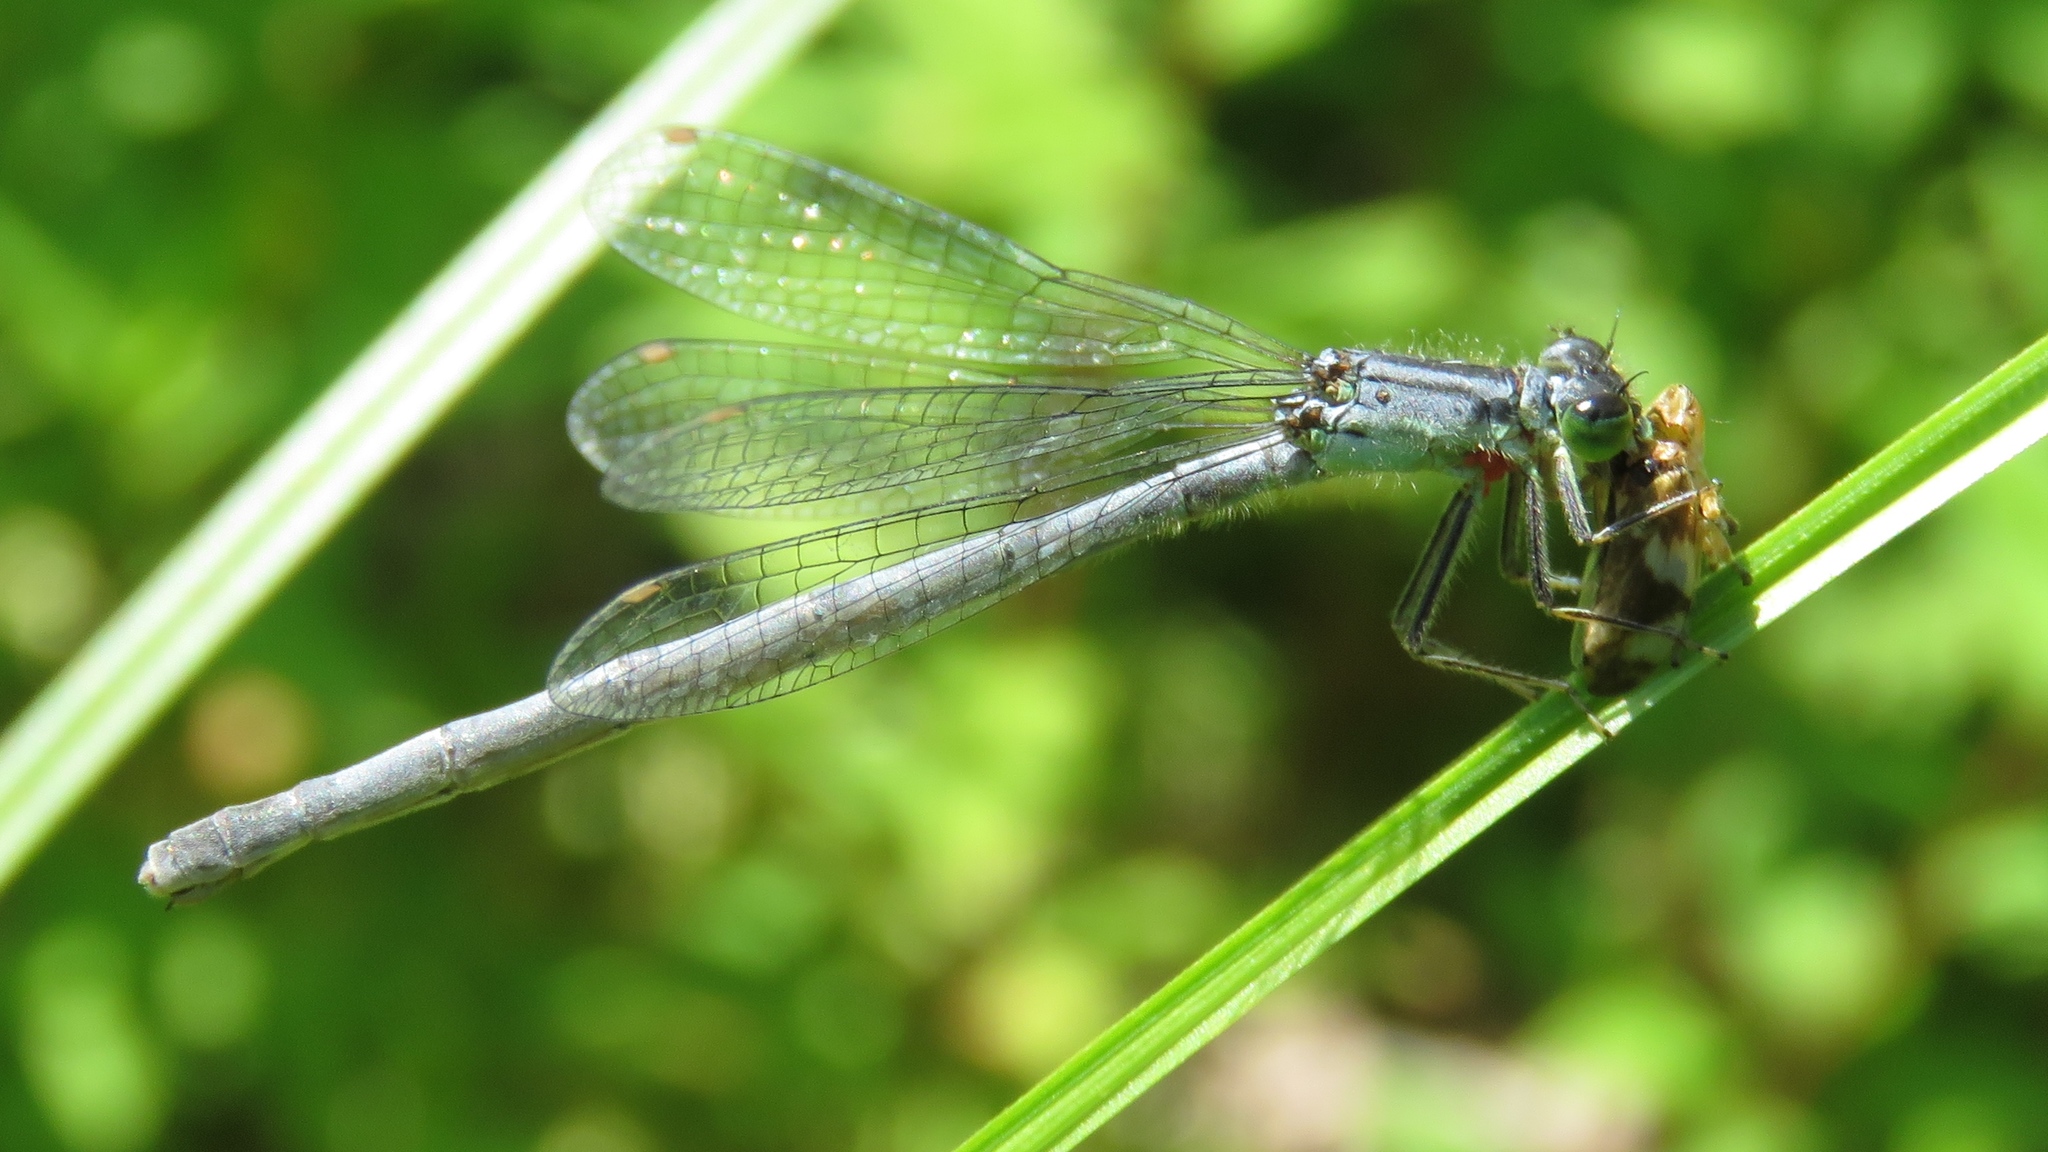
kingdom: Animalia
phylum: Arthropoda
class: Insecta
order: Odonata
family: Coenagrionidae
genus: Ischnura
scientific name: Ischnura verticalis
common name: Eastern forktail
